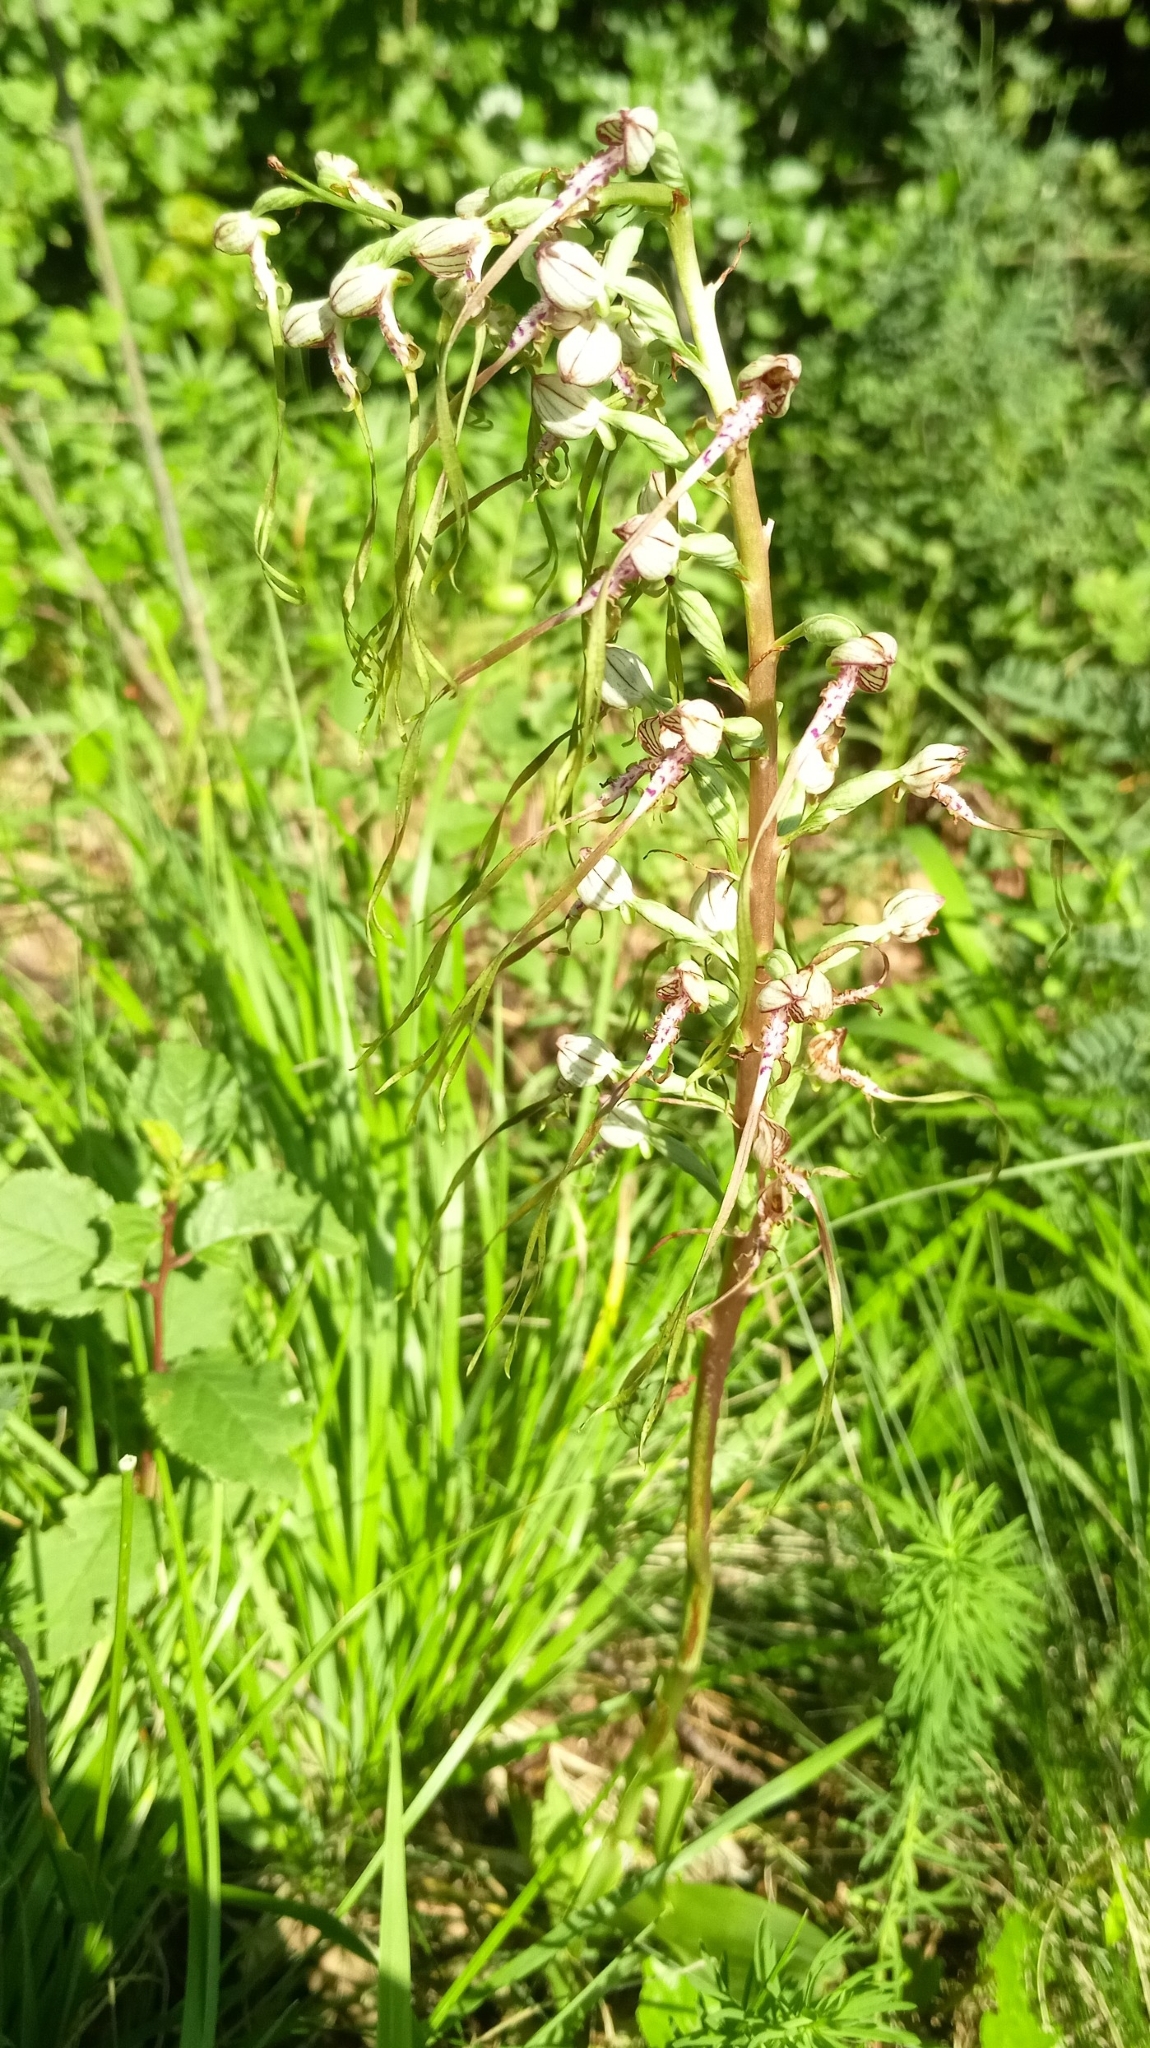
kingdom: Plantae
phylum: Tracheophyta
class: Liliopsida
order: Asparagales
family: Orchidaceae
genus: Himantoglossum
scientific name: Himantoglossum adriaticum
